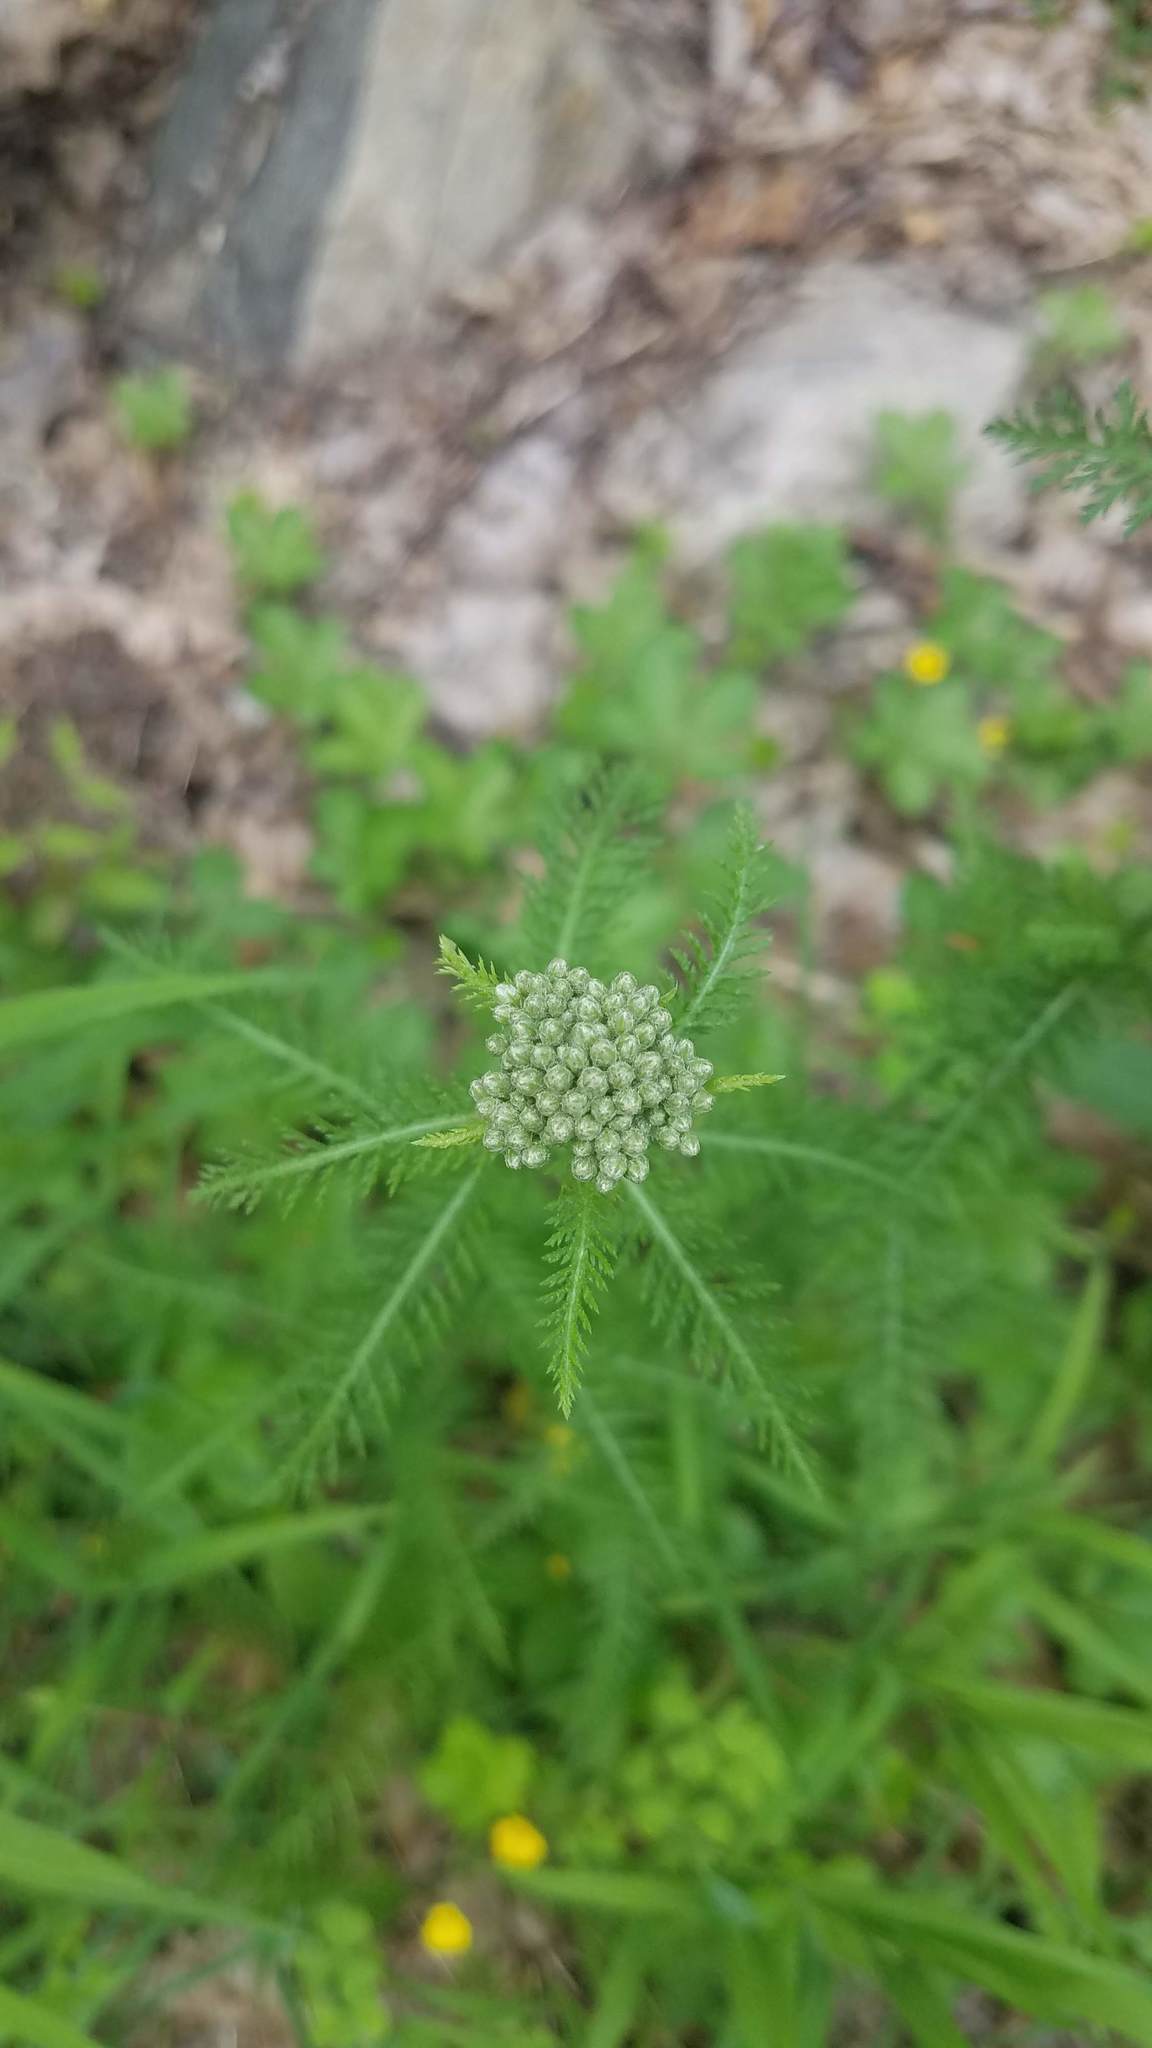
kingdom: Plantae
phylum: Tracheophyta
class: Magnoliopsida
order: Asterales
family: Asteraceae
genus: Achillea
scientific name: Achillea millefolium
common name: Yarrow
